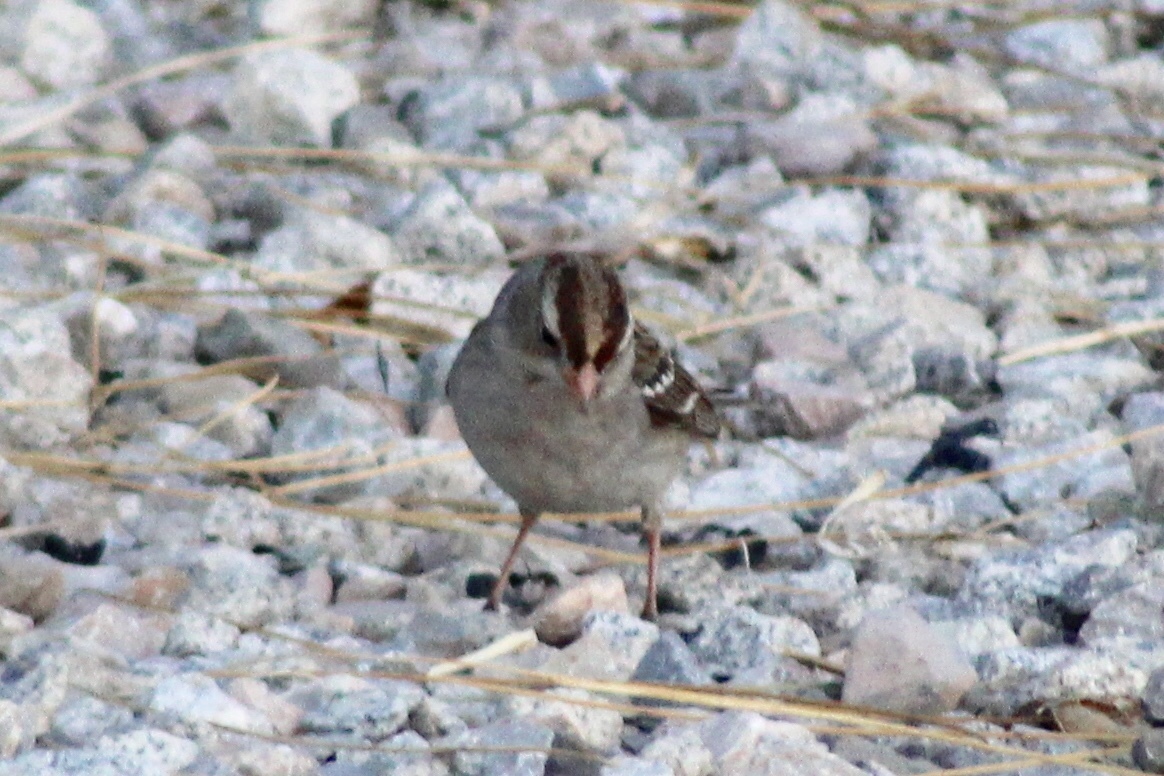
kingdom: Animalia
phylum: Chordata
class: Aves
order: Passeriformes
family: Passerellidae
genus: Zonotrichia
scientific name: Zonotrichia leucophrys
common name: White-crowned sparrow
